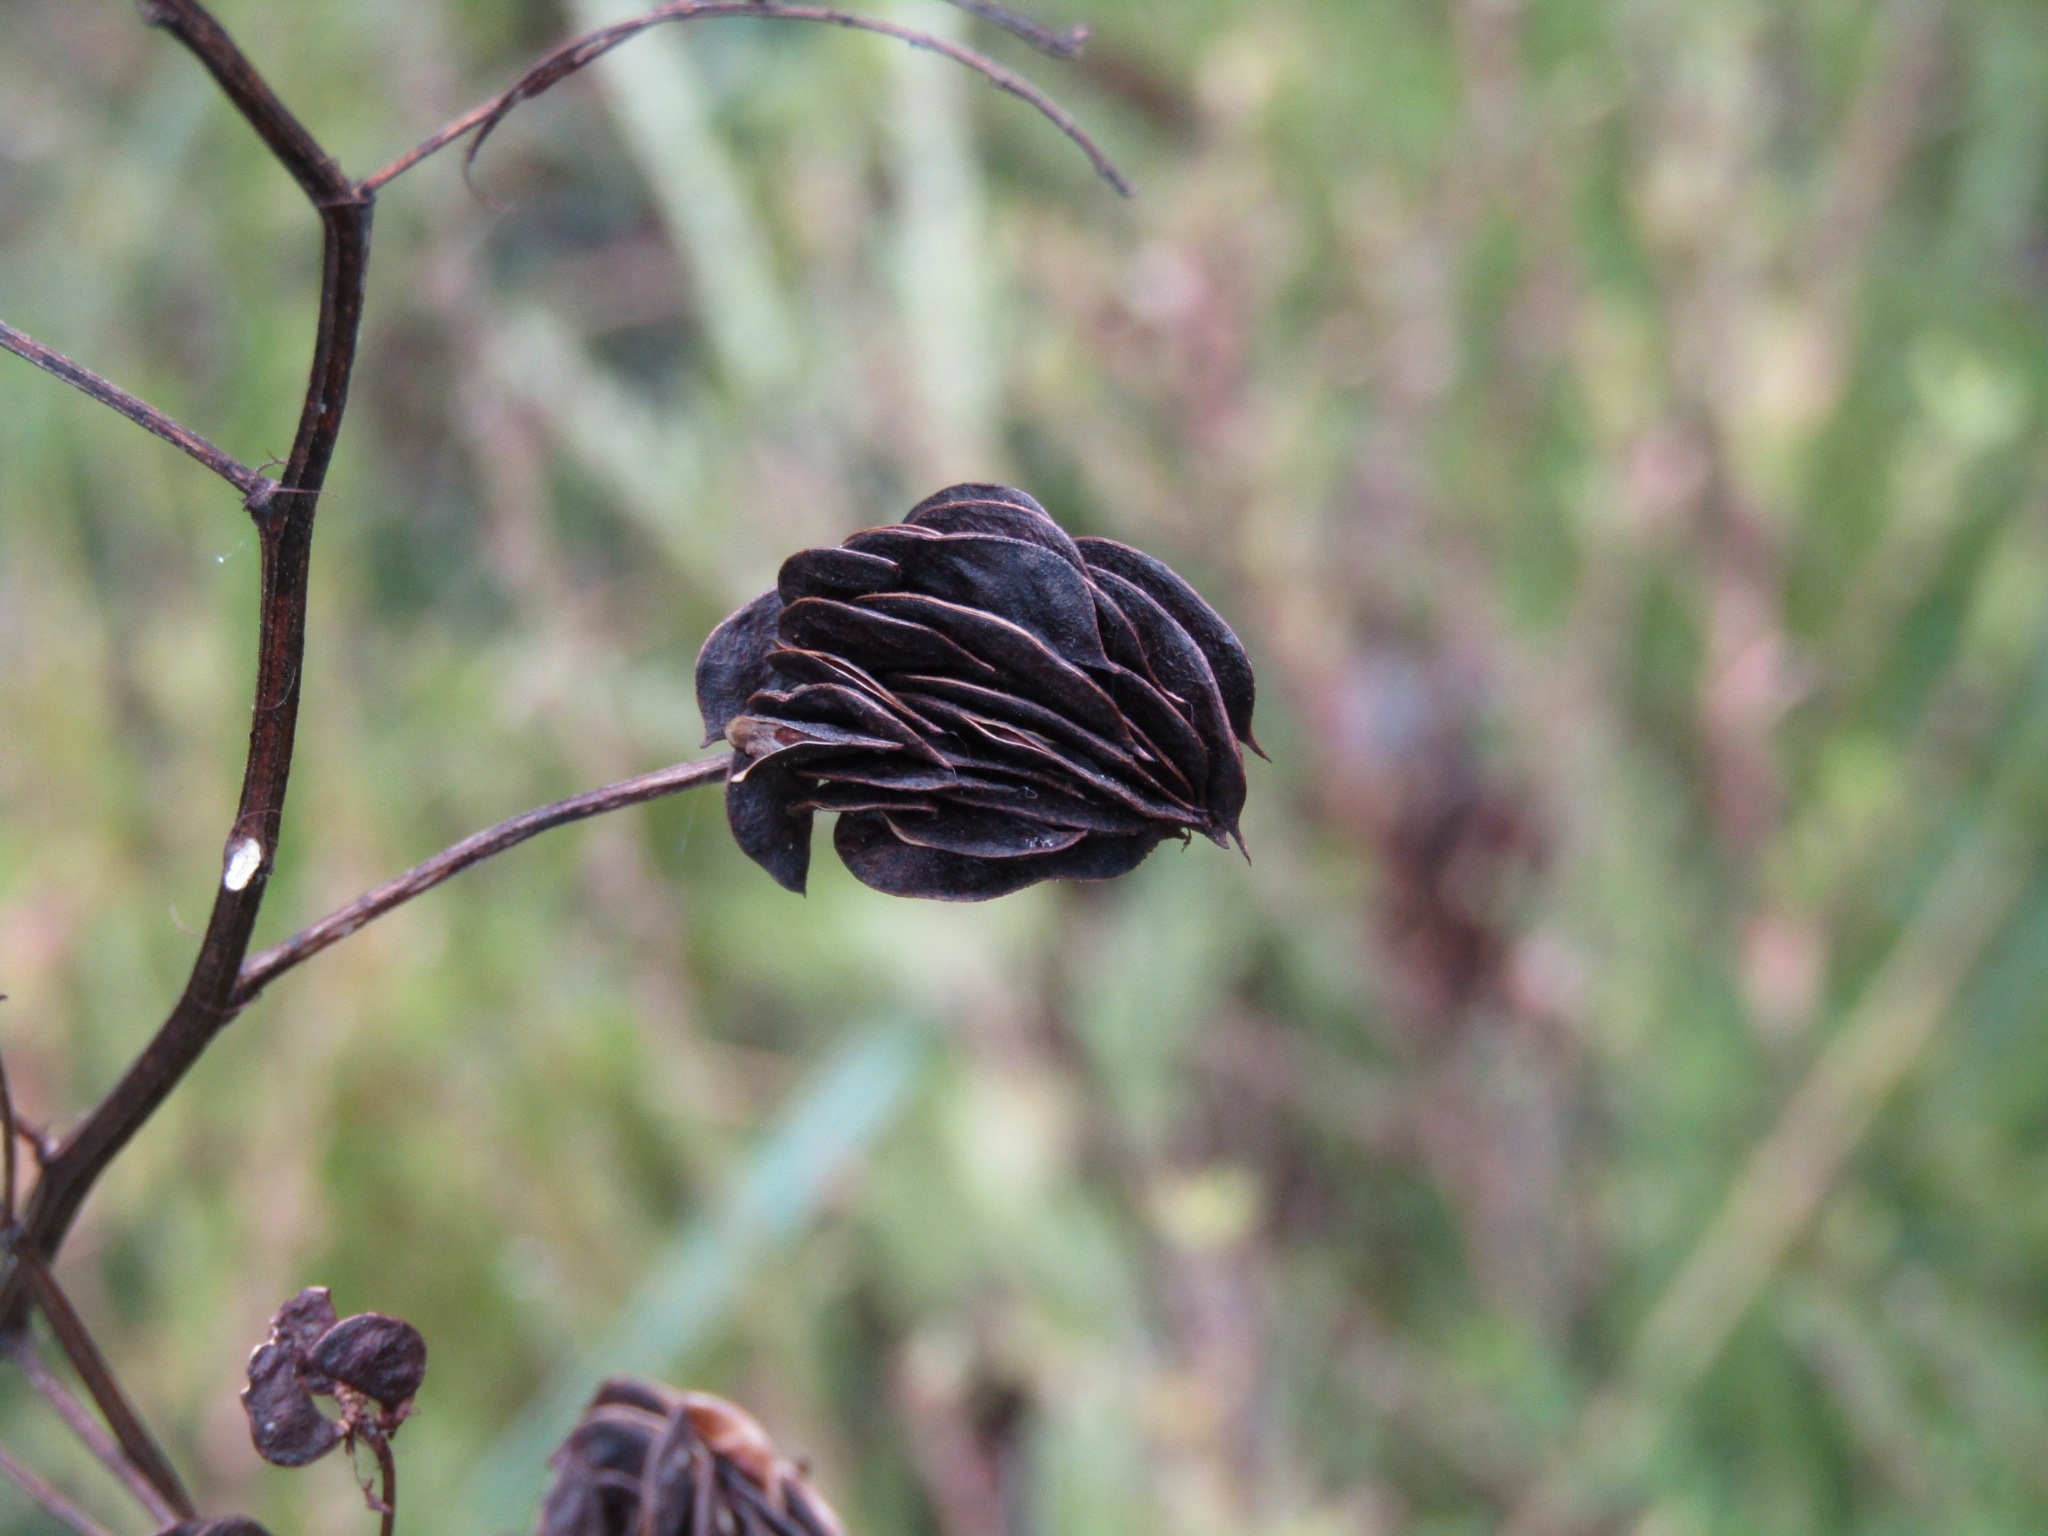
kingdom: Plantae
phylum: Tracheophyta
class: Magnoliopsida
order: Fabales
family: Fabaceae
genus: Desmanthus
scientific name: Desmanthus illinoensis
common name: Illinois bundle-flower
